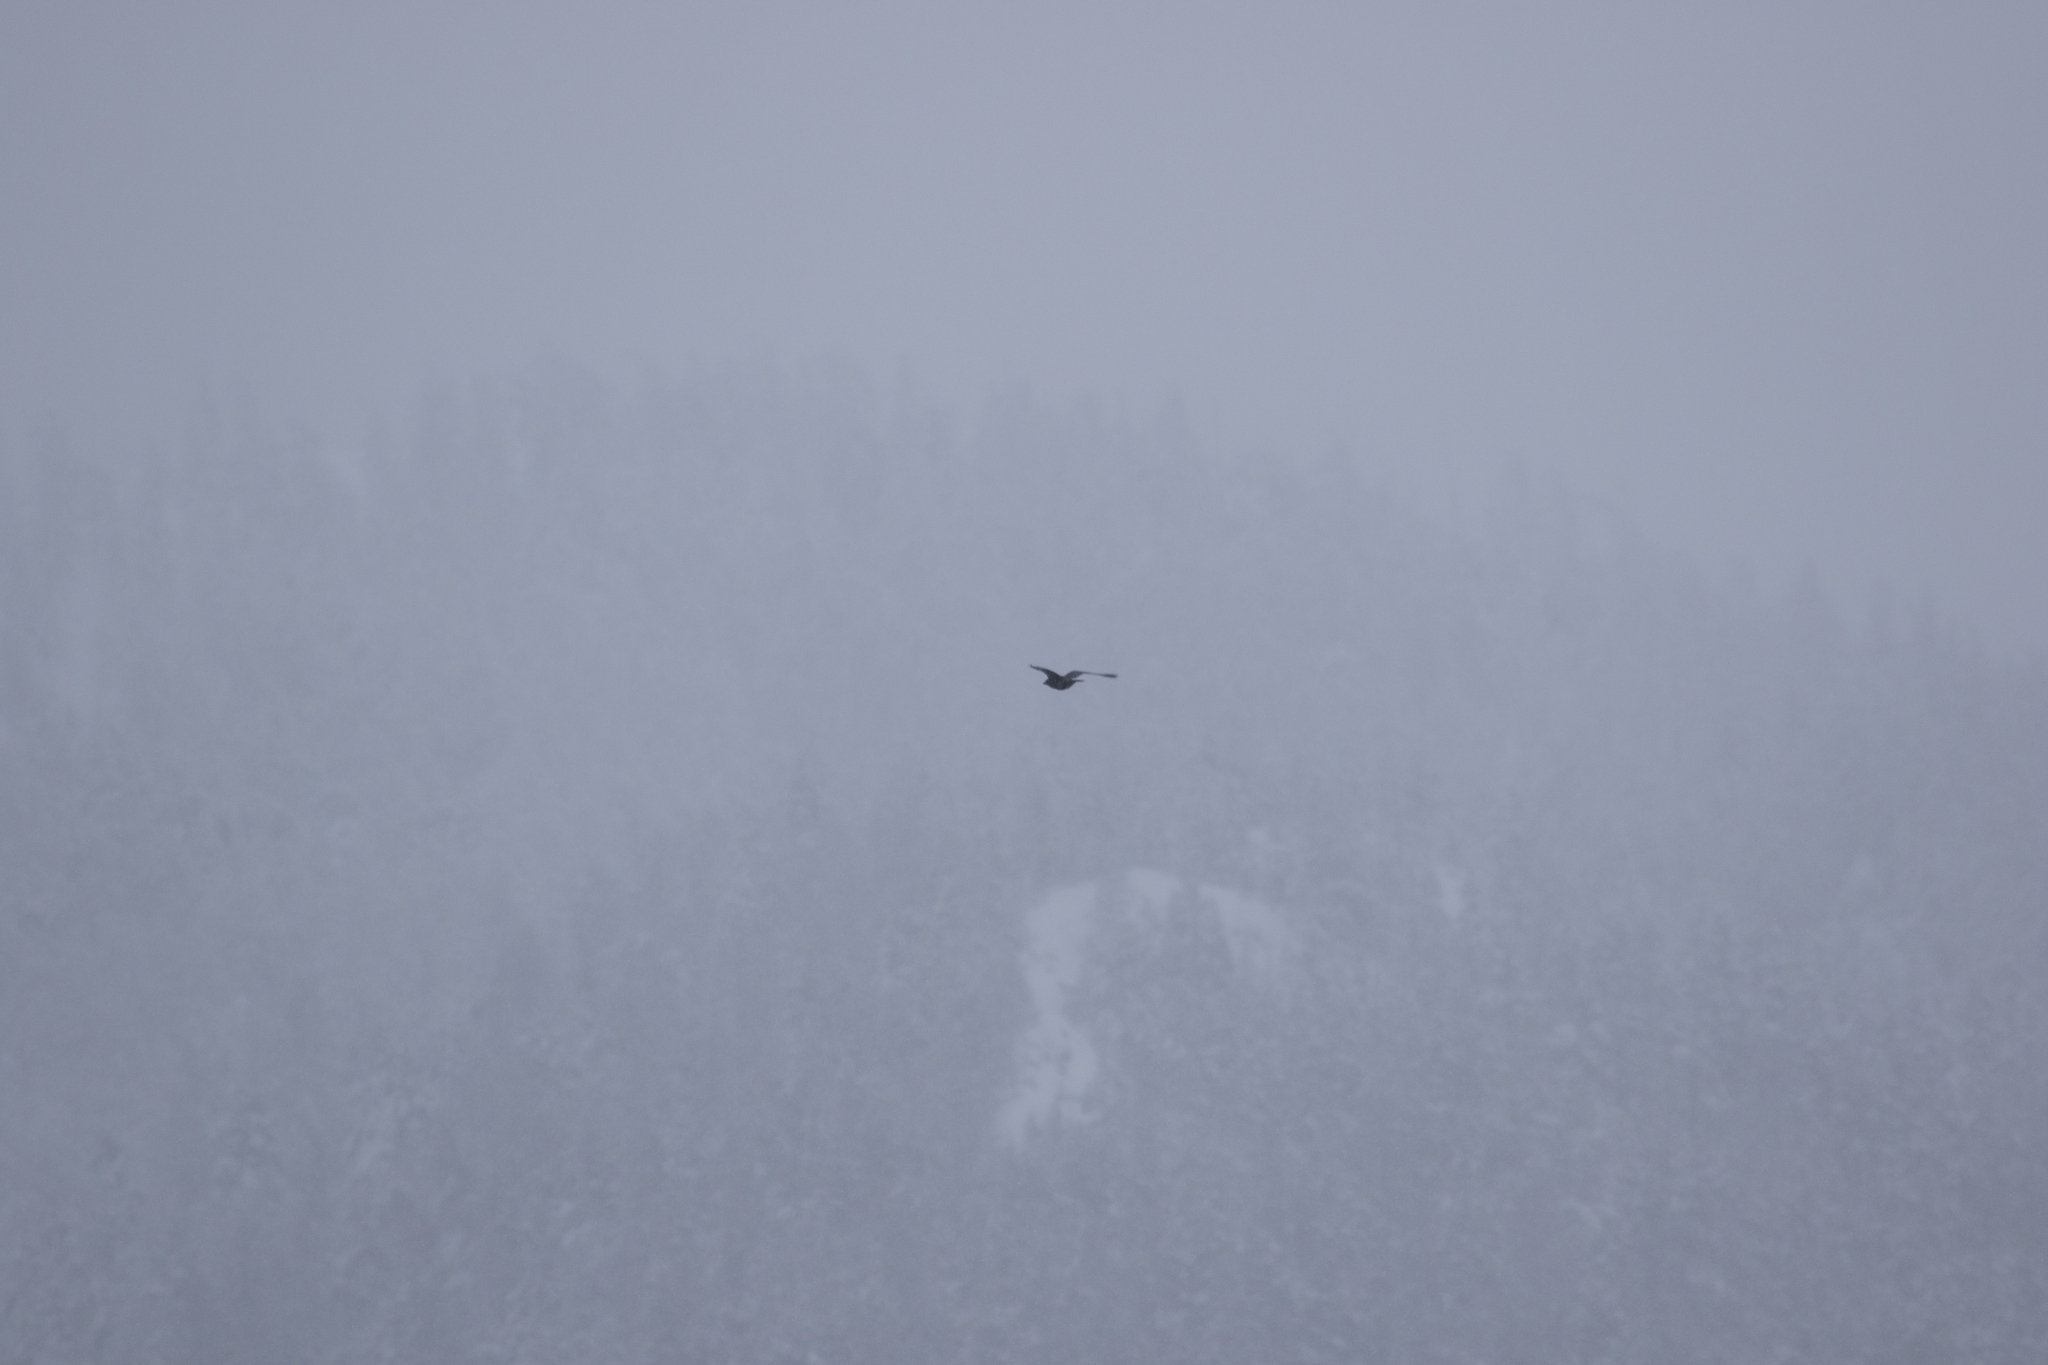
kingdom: Animalia
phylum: Chordata
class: Aves
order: Passeriformes
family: Corvidae
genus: Corvus
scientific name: Corvus corax
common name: Common raven
